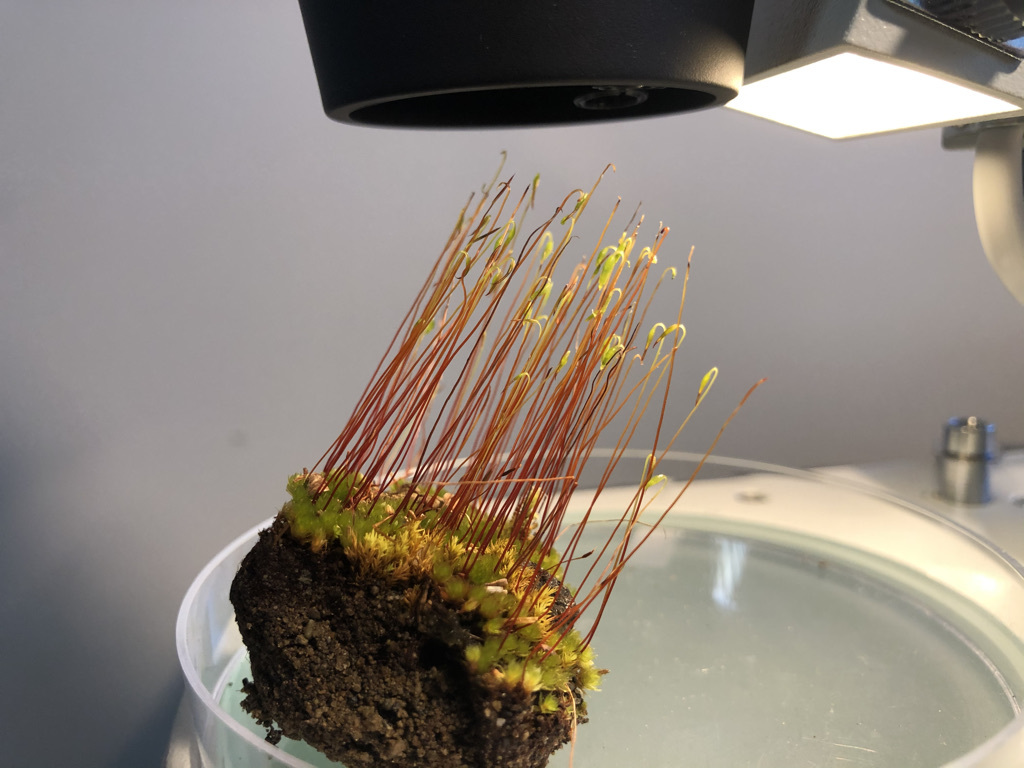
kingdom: Plantae
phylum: Bryophyta
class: Bryopsida
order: Bryales
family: Bryaceae
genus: Rosulabryum
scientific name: Rosulabryum capillare
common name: Capillary thread-moss
